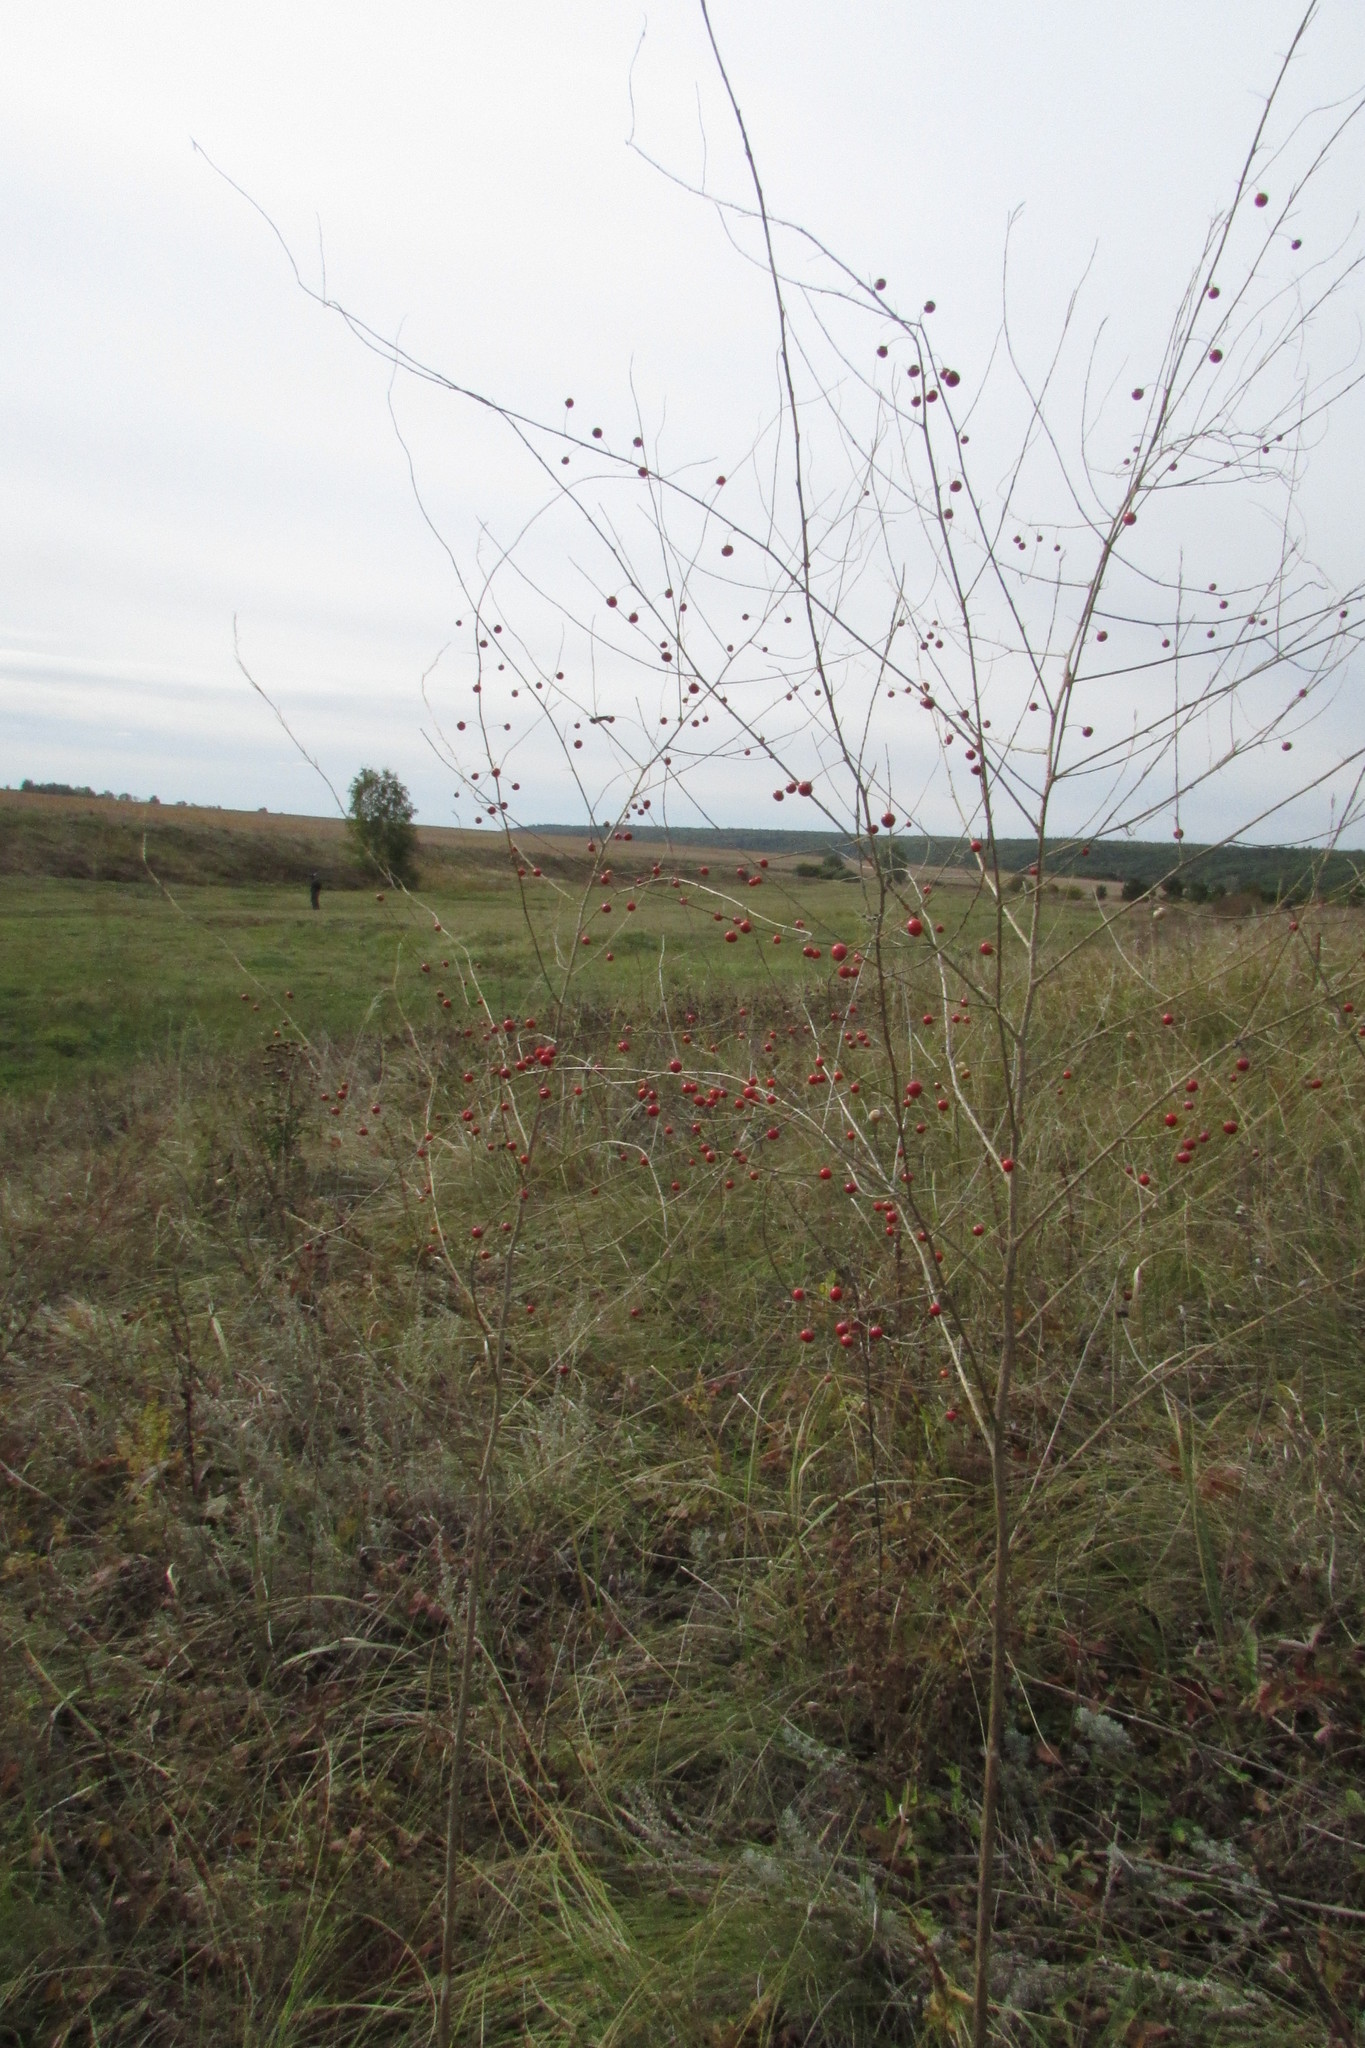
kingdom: Plantae
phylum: Tracheophyta
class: Liliopsida
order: Asparagales
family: Asparagaceae
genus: Asparagus
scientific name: Asparagus officinalis
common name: Garden asparagus
